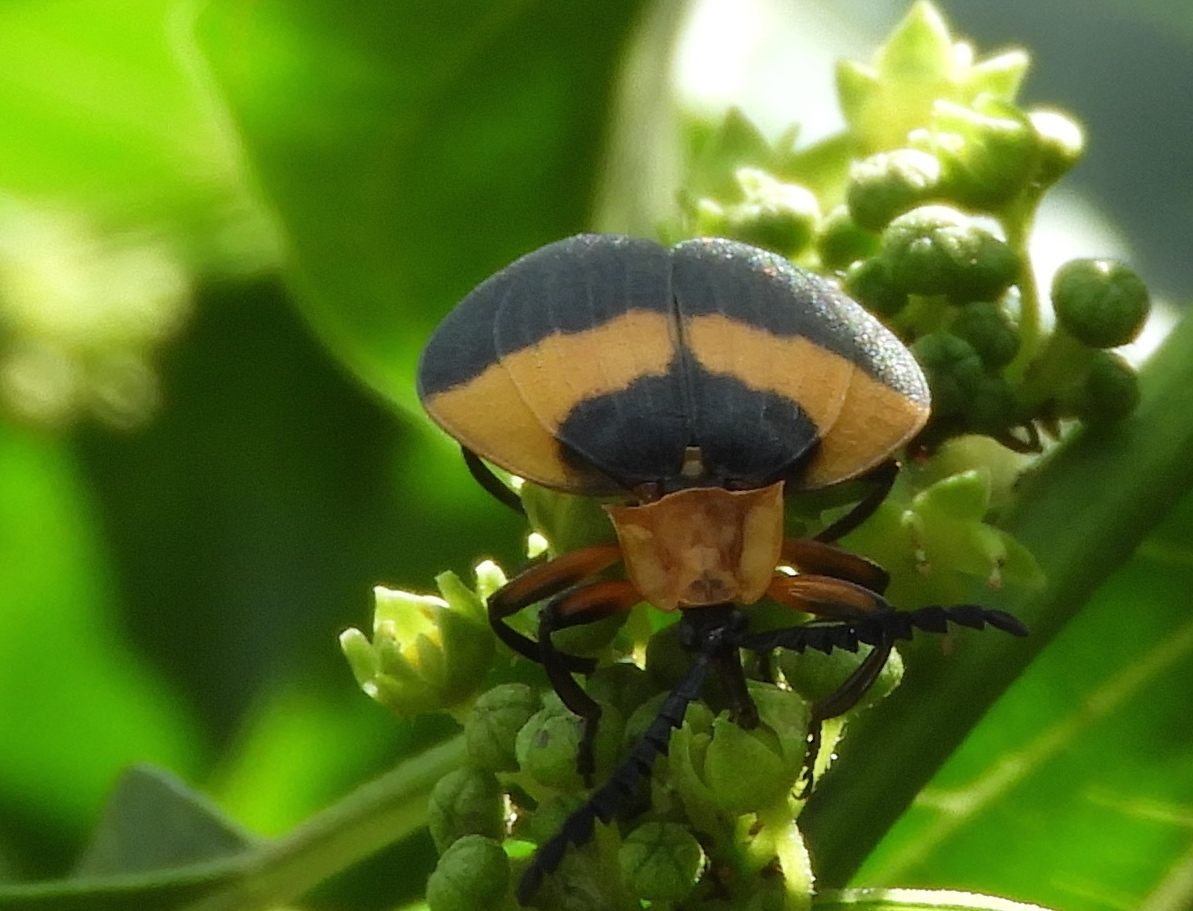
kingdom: Animalia
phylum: Arthropoda
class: Insecta
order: Coleoptera
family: Lycidae
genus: Lycus
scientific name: Lycus
